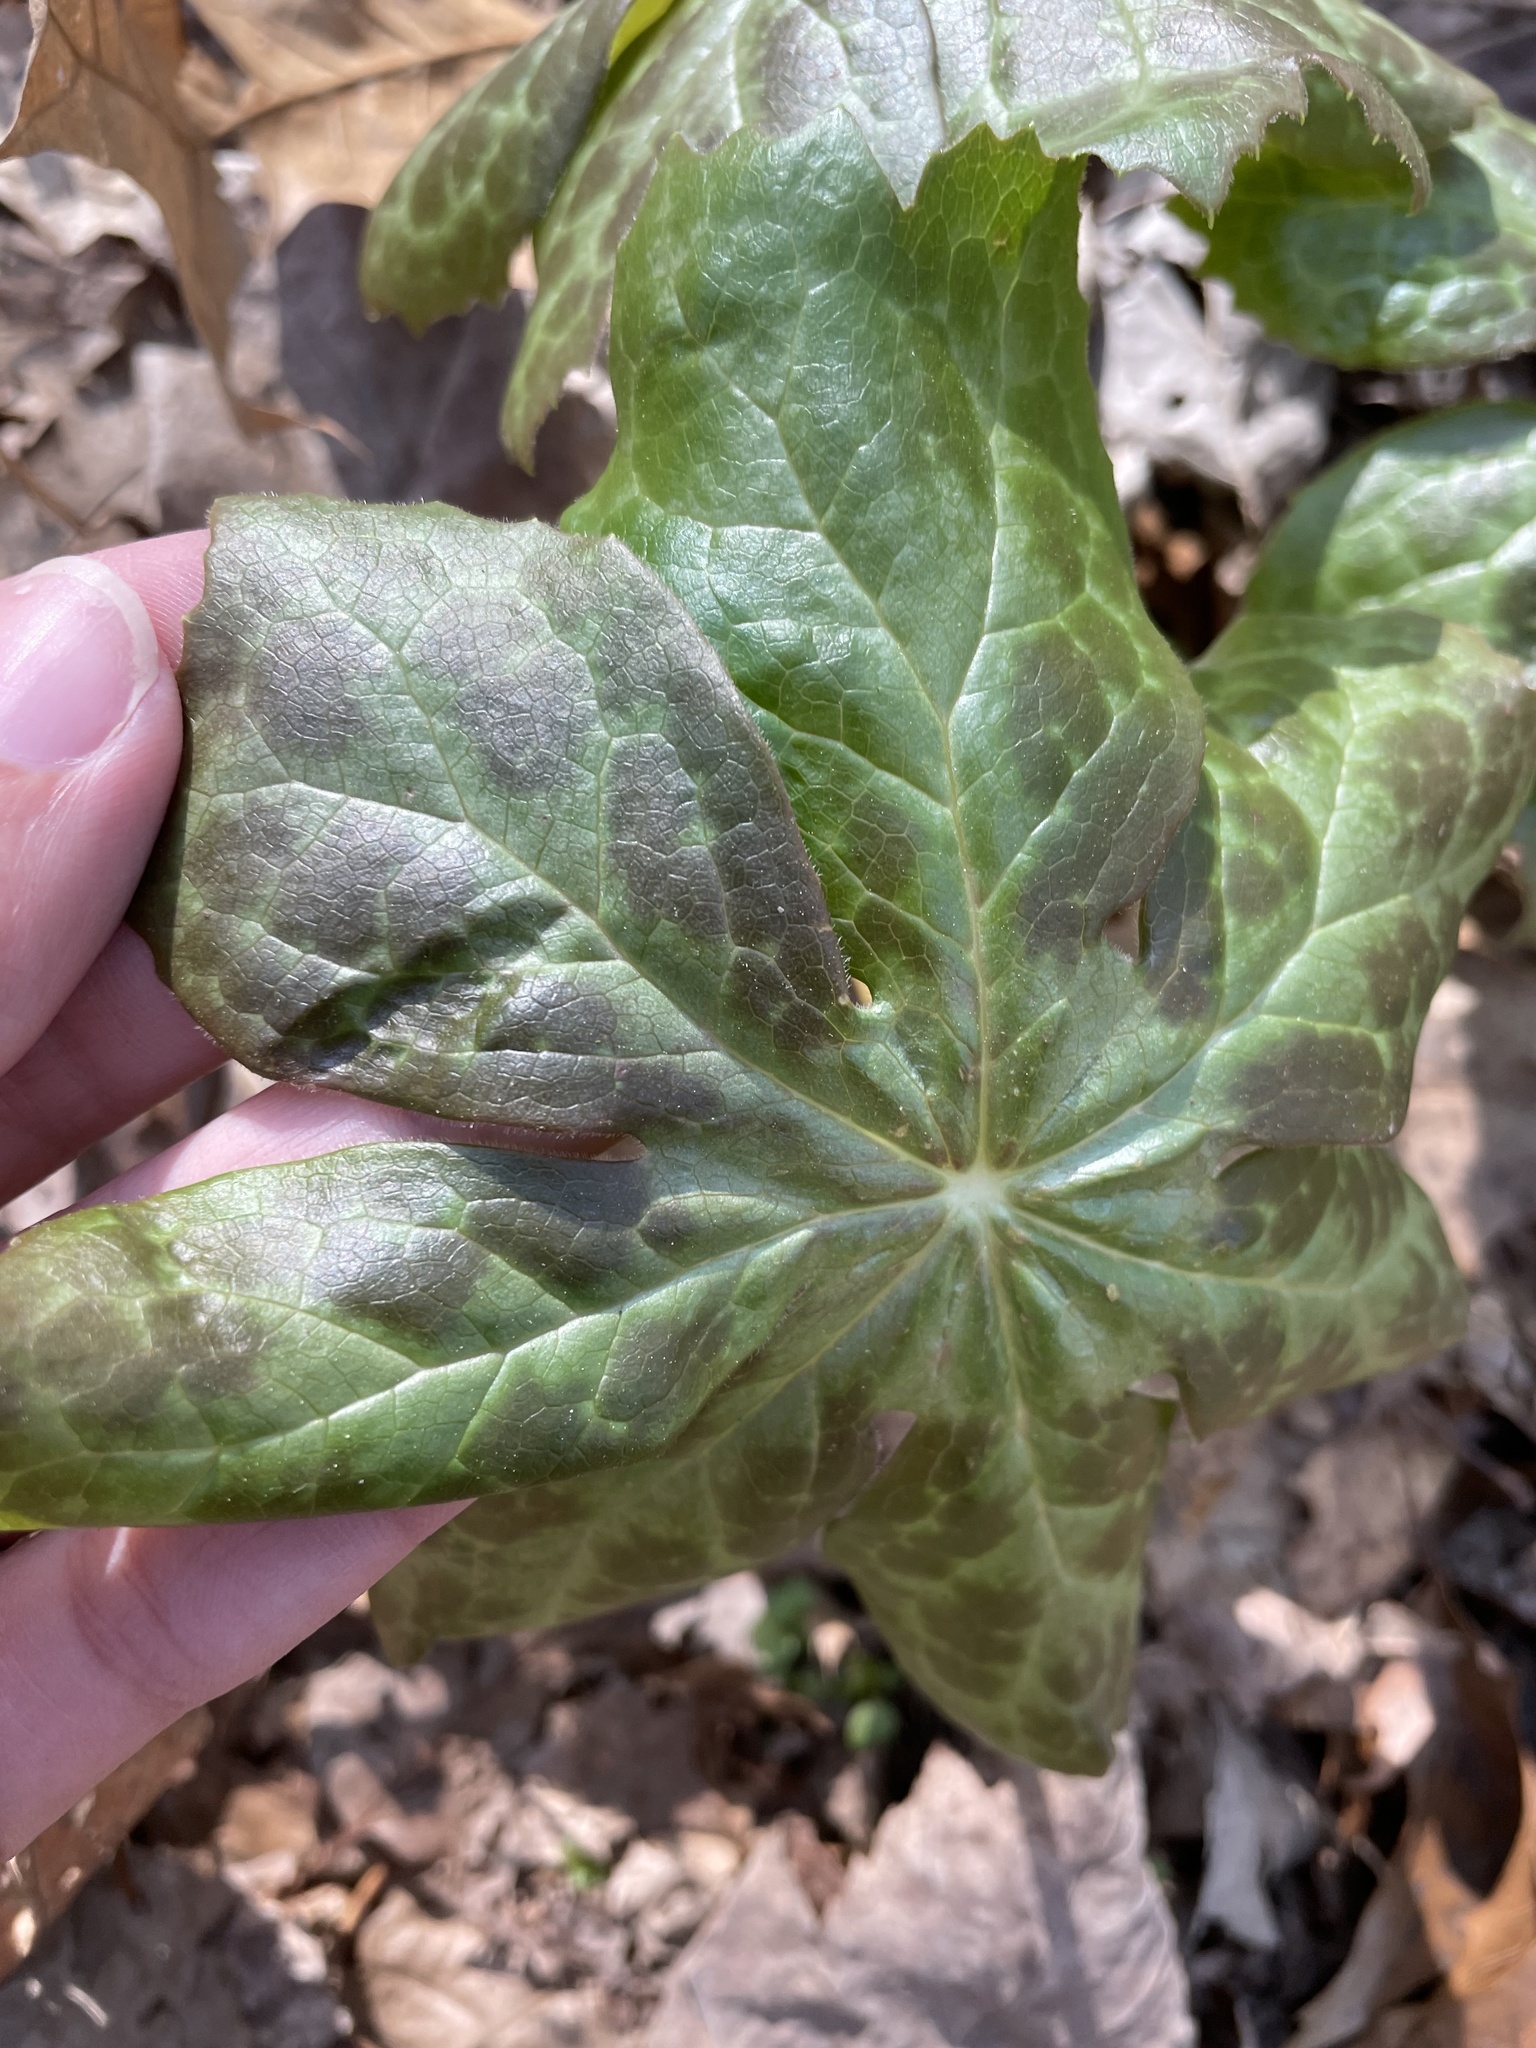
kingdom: Fungi
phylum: Basidiomycota
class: Pucciniomycetes
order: Pucciniales
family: Pucciniaceae
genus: Puccinia
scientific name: Puccinia podophylli
